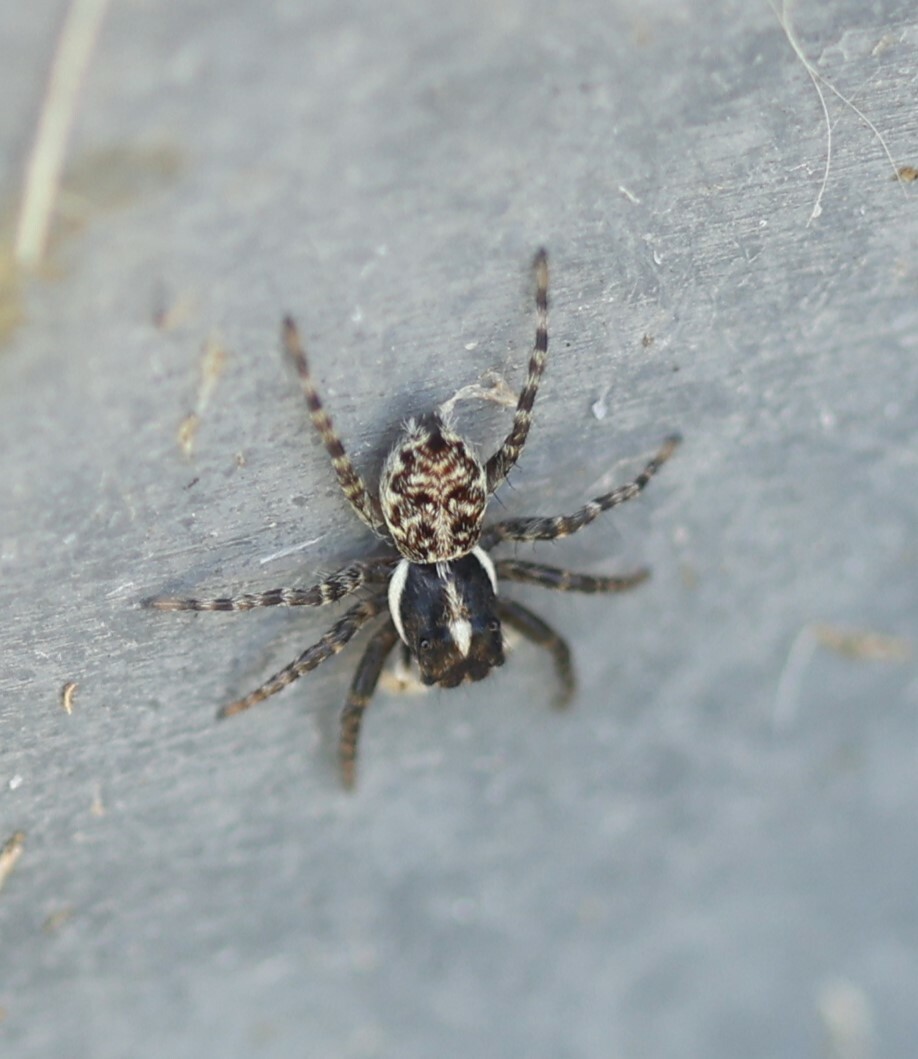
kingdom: Animalia
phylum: Arthropoda
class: Arachnida
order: Araneae
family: Salticidae
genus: Menemerus
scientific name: Menemerus semilimbatus
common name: Jumping spider
